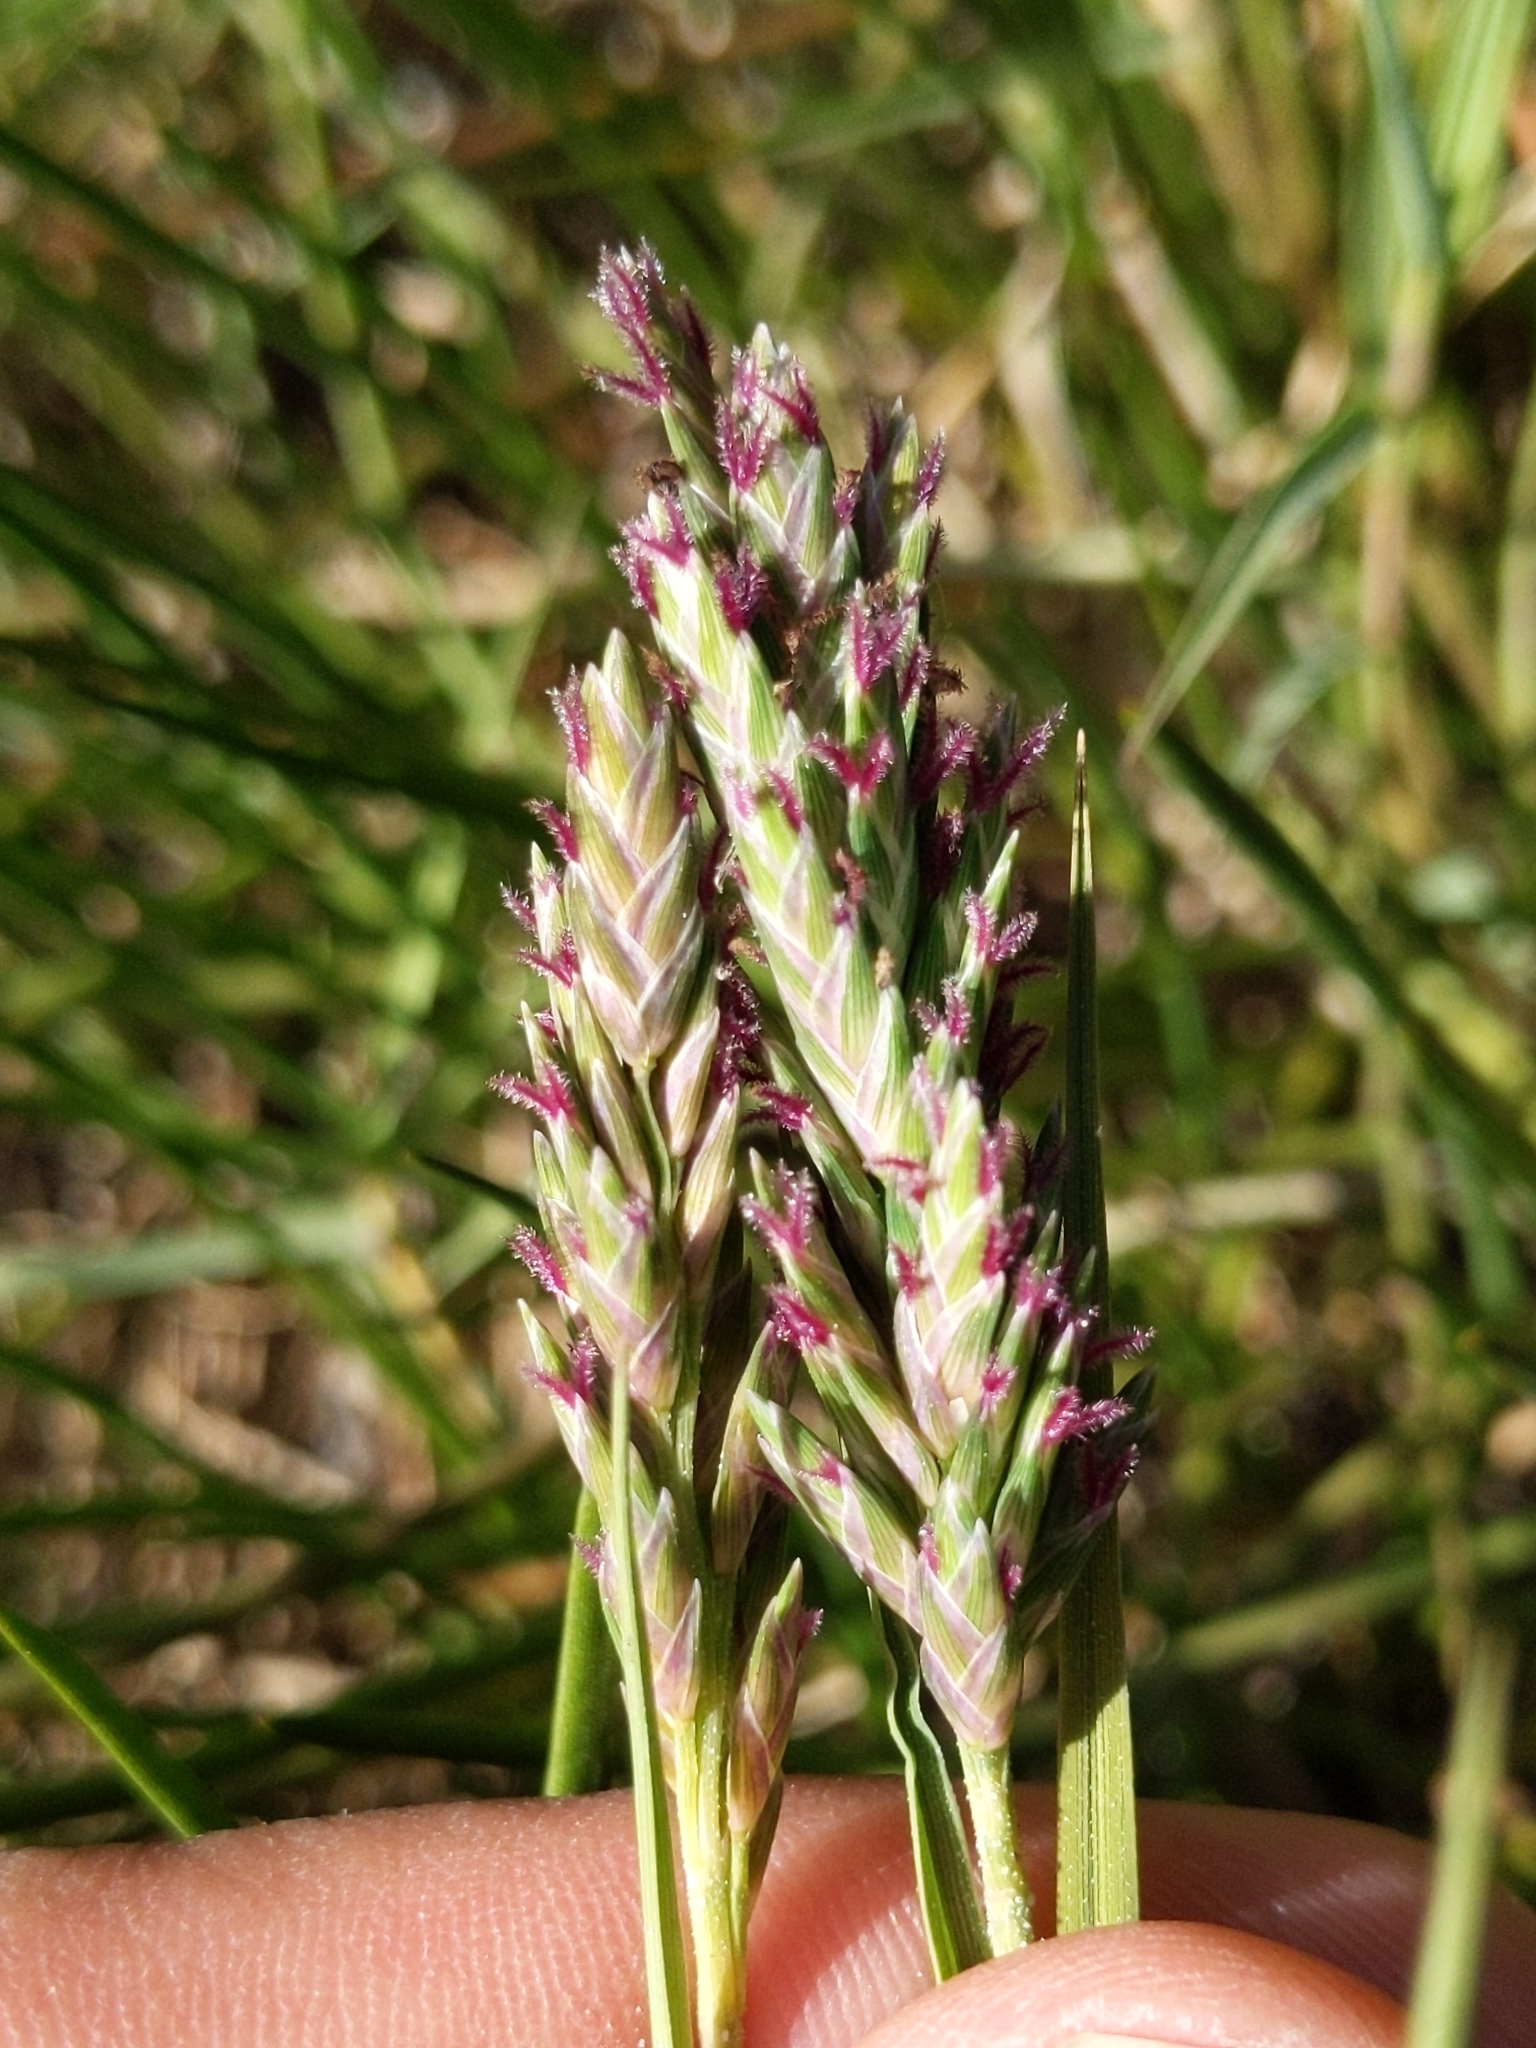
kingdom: Plantae
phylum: Tracheophyta
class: Liliopsida
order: Poales
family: Poaceae
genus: Distichlis
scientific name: Distichlis spicata
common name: Saltgrass
